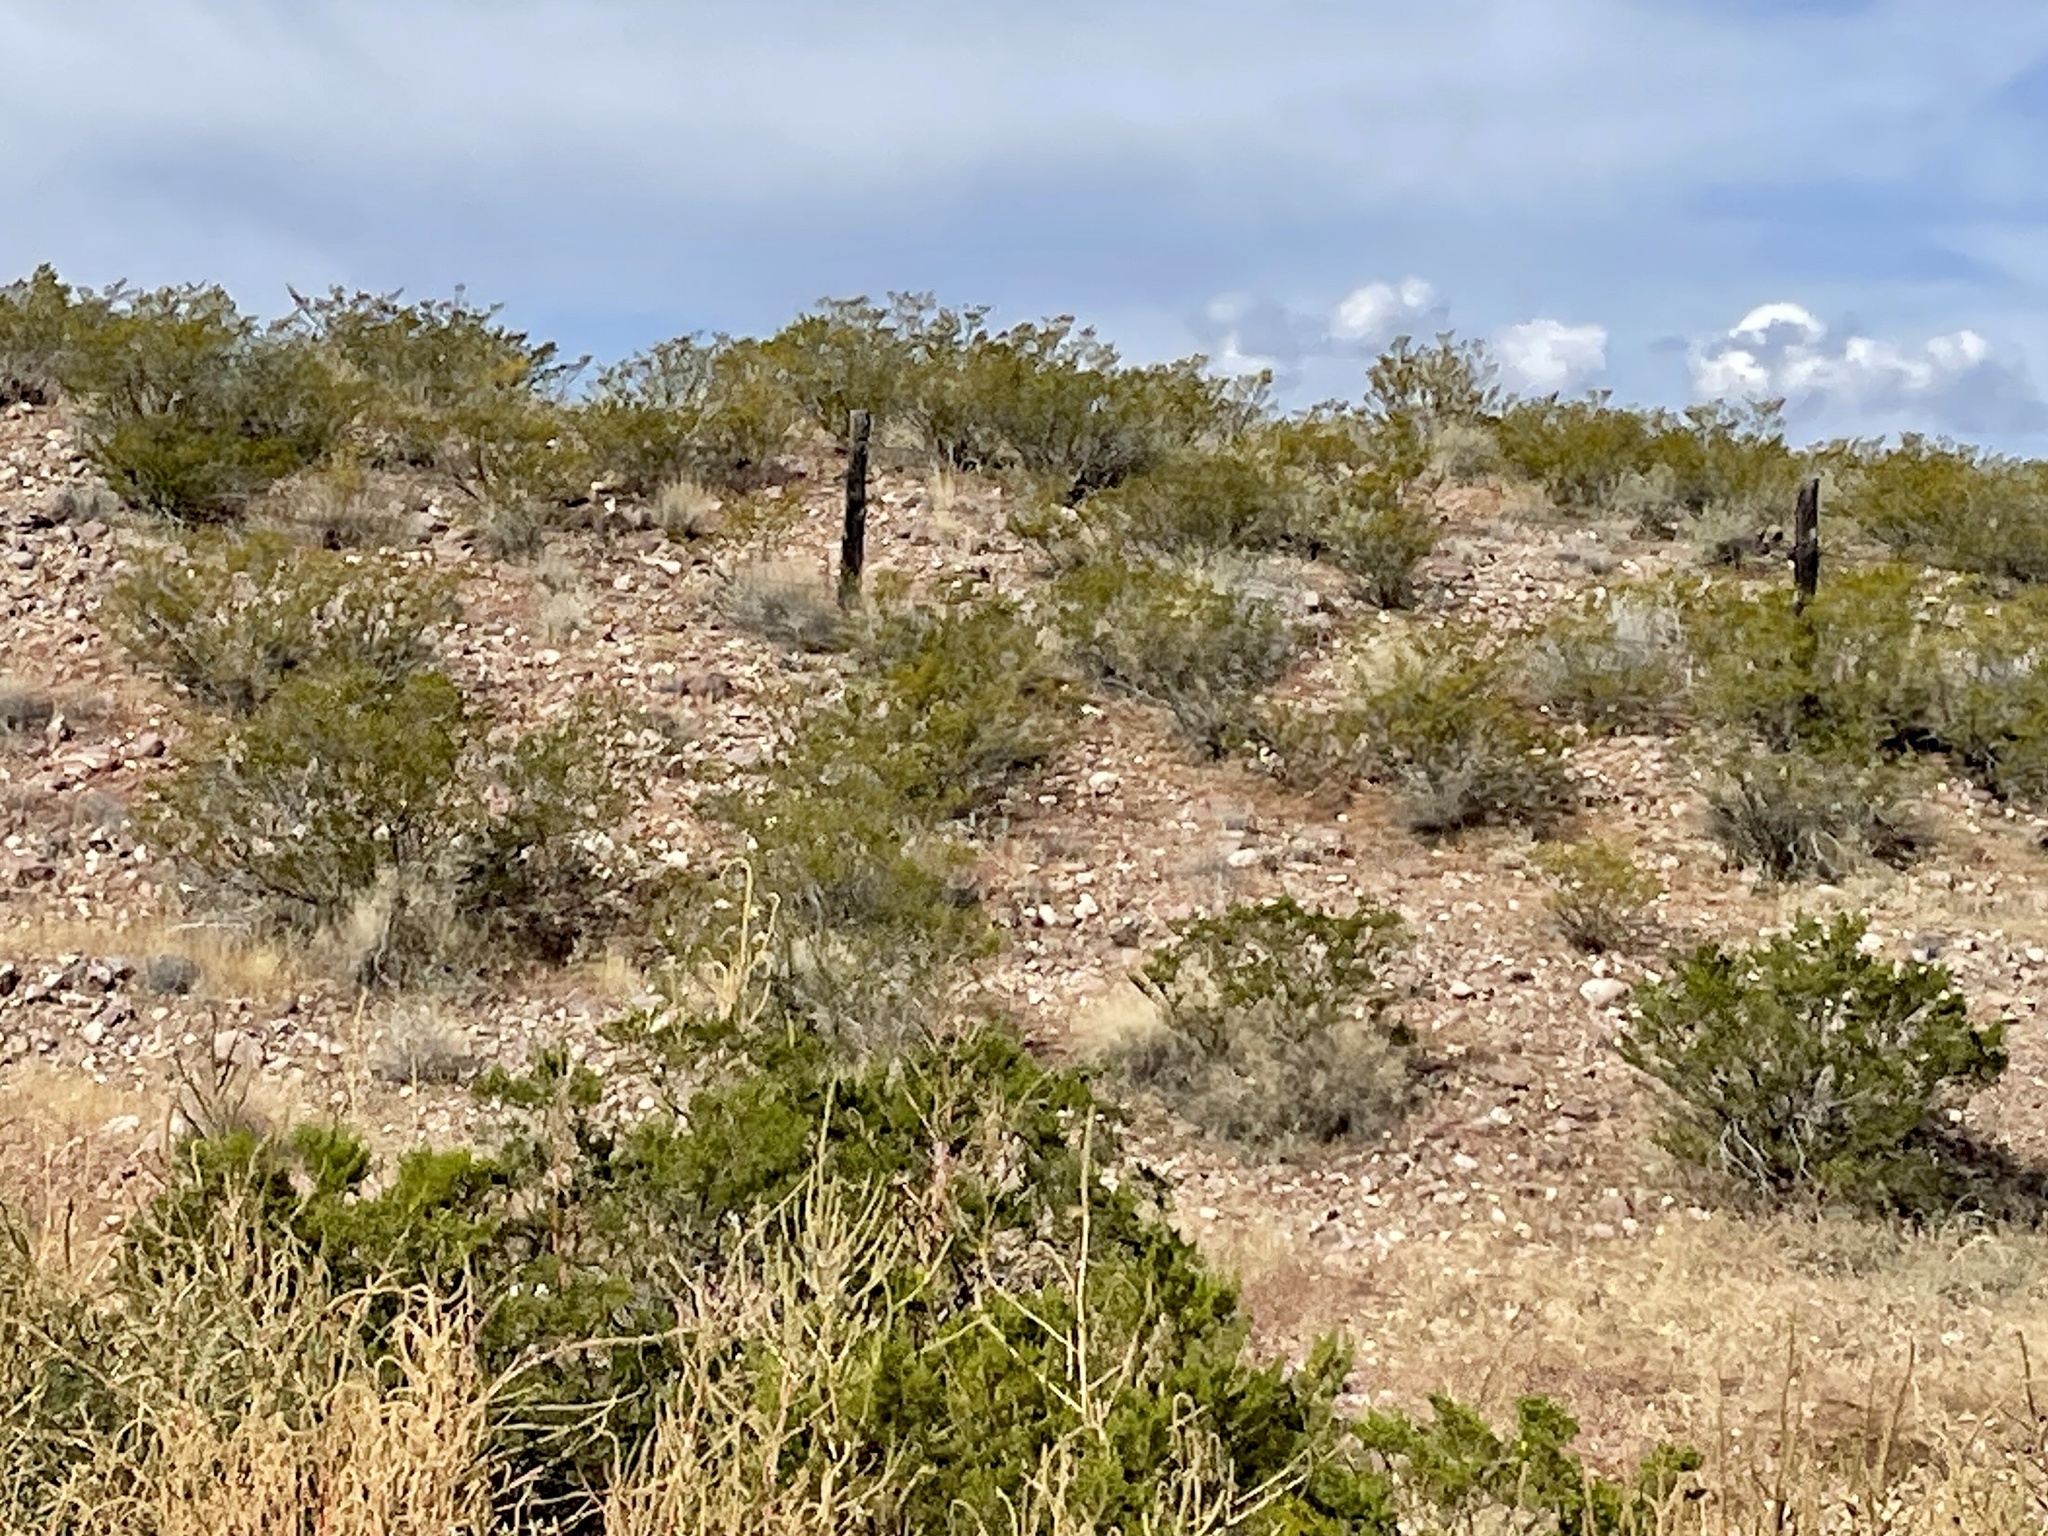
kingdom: Plantae
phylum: Tracheophyta
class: Magnoliopsida
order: Zygophyllales
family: Zygophyllaceae
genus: Larrea
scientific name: Larrea tridentata
